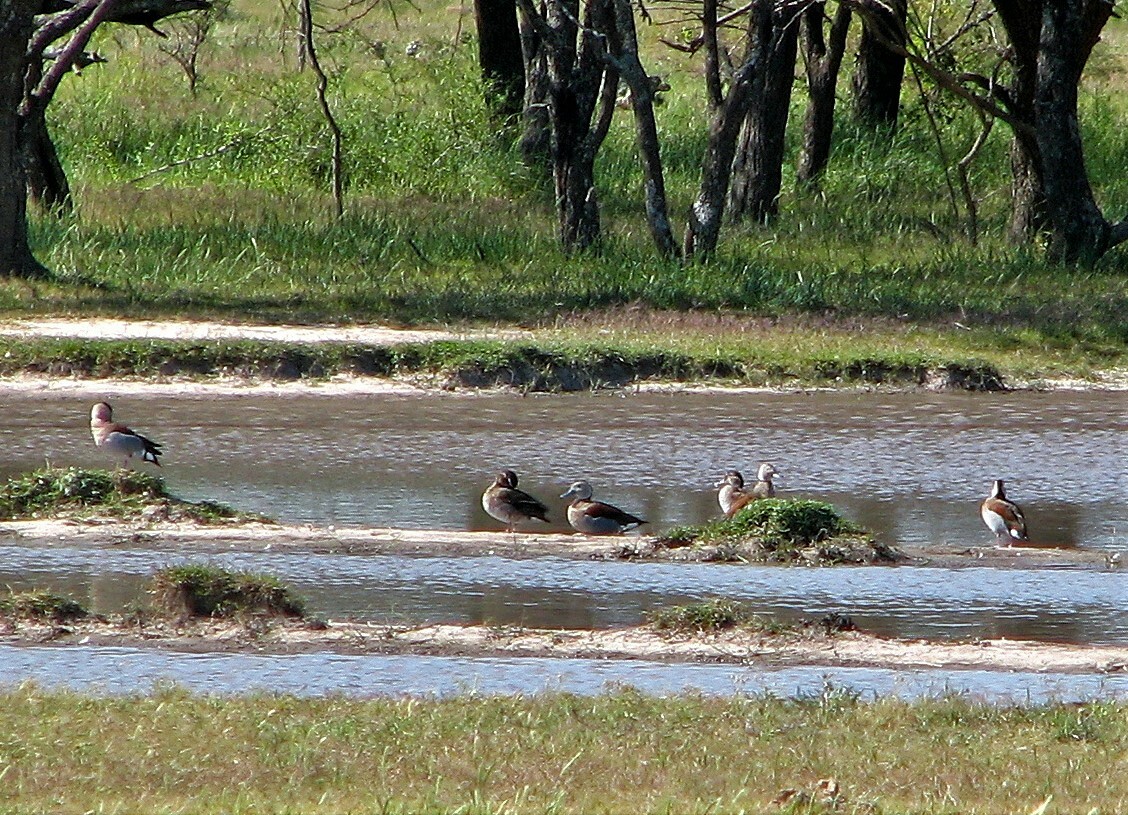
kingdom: Animalia
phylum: Chordata
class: Aves
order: Anseriformes
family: Anatidae
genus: Callonetta
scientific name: Callonetta leucophrys
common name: Ringed teal
